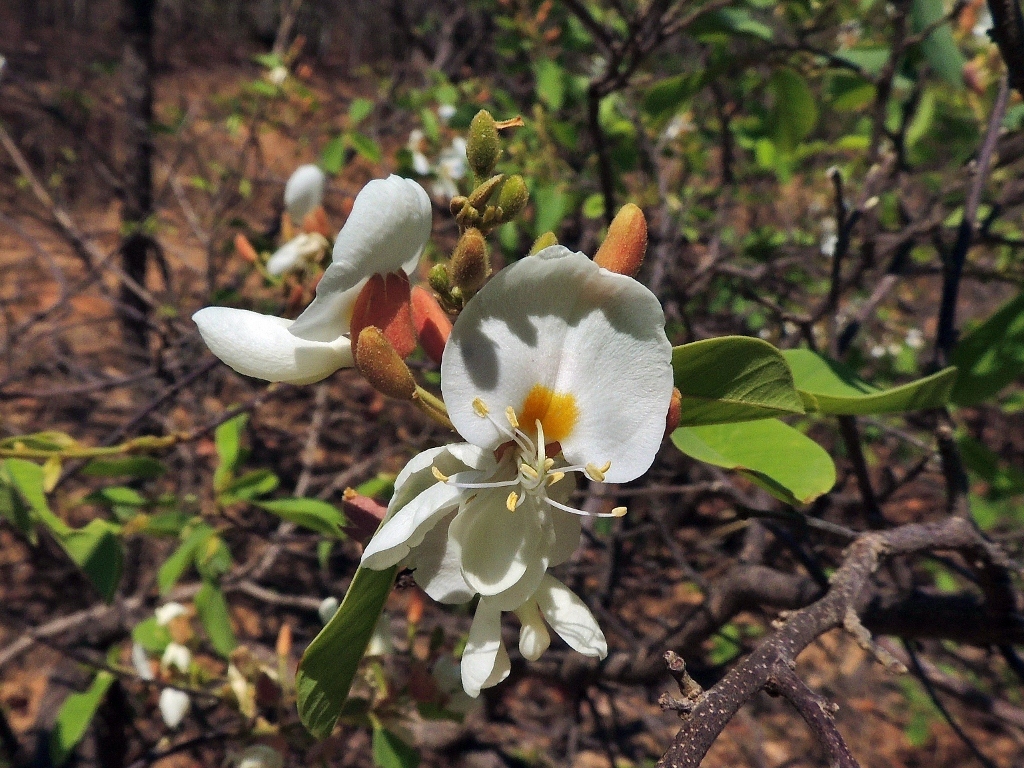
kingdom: Plantae
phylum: Tracheophyta
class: Magnoliopsida
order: Fabales
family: Fabaceae
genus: Baphia
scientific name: Baphia massaiensis
